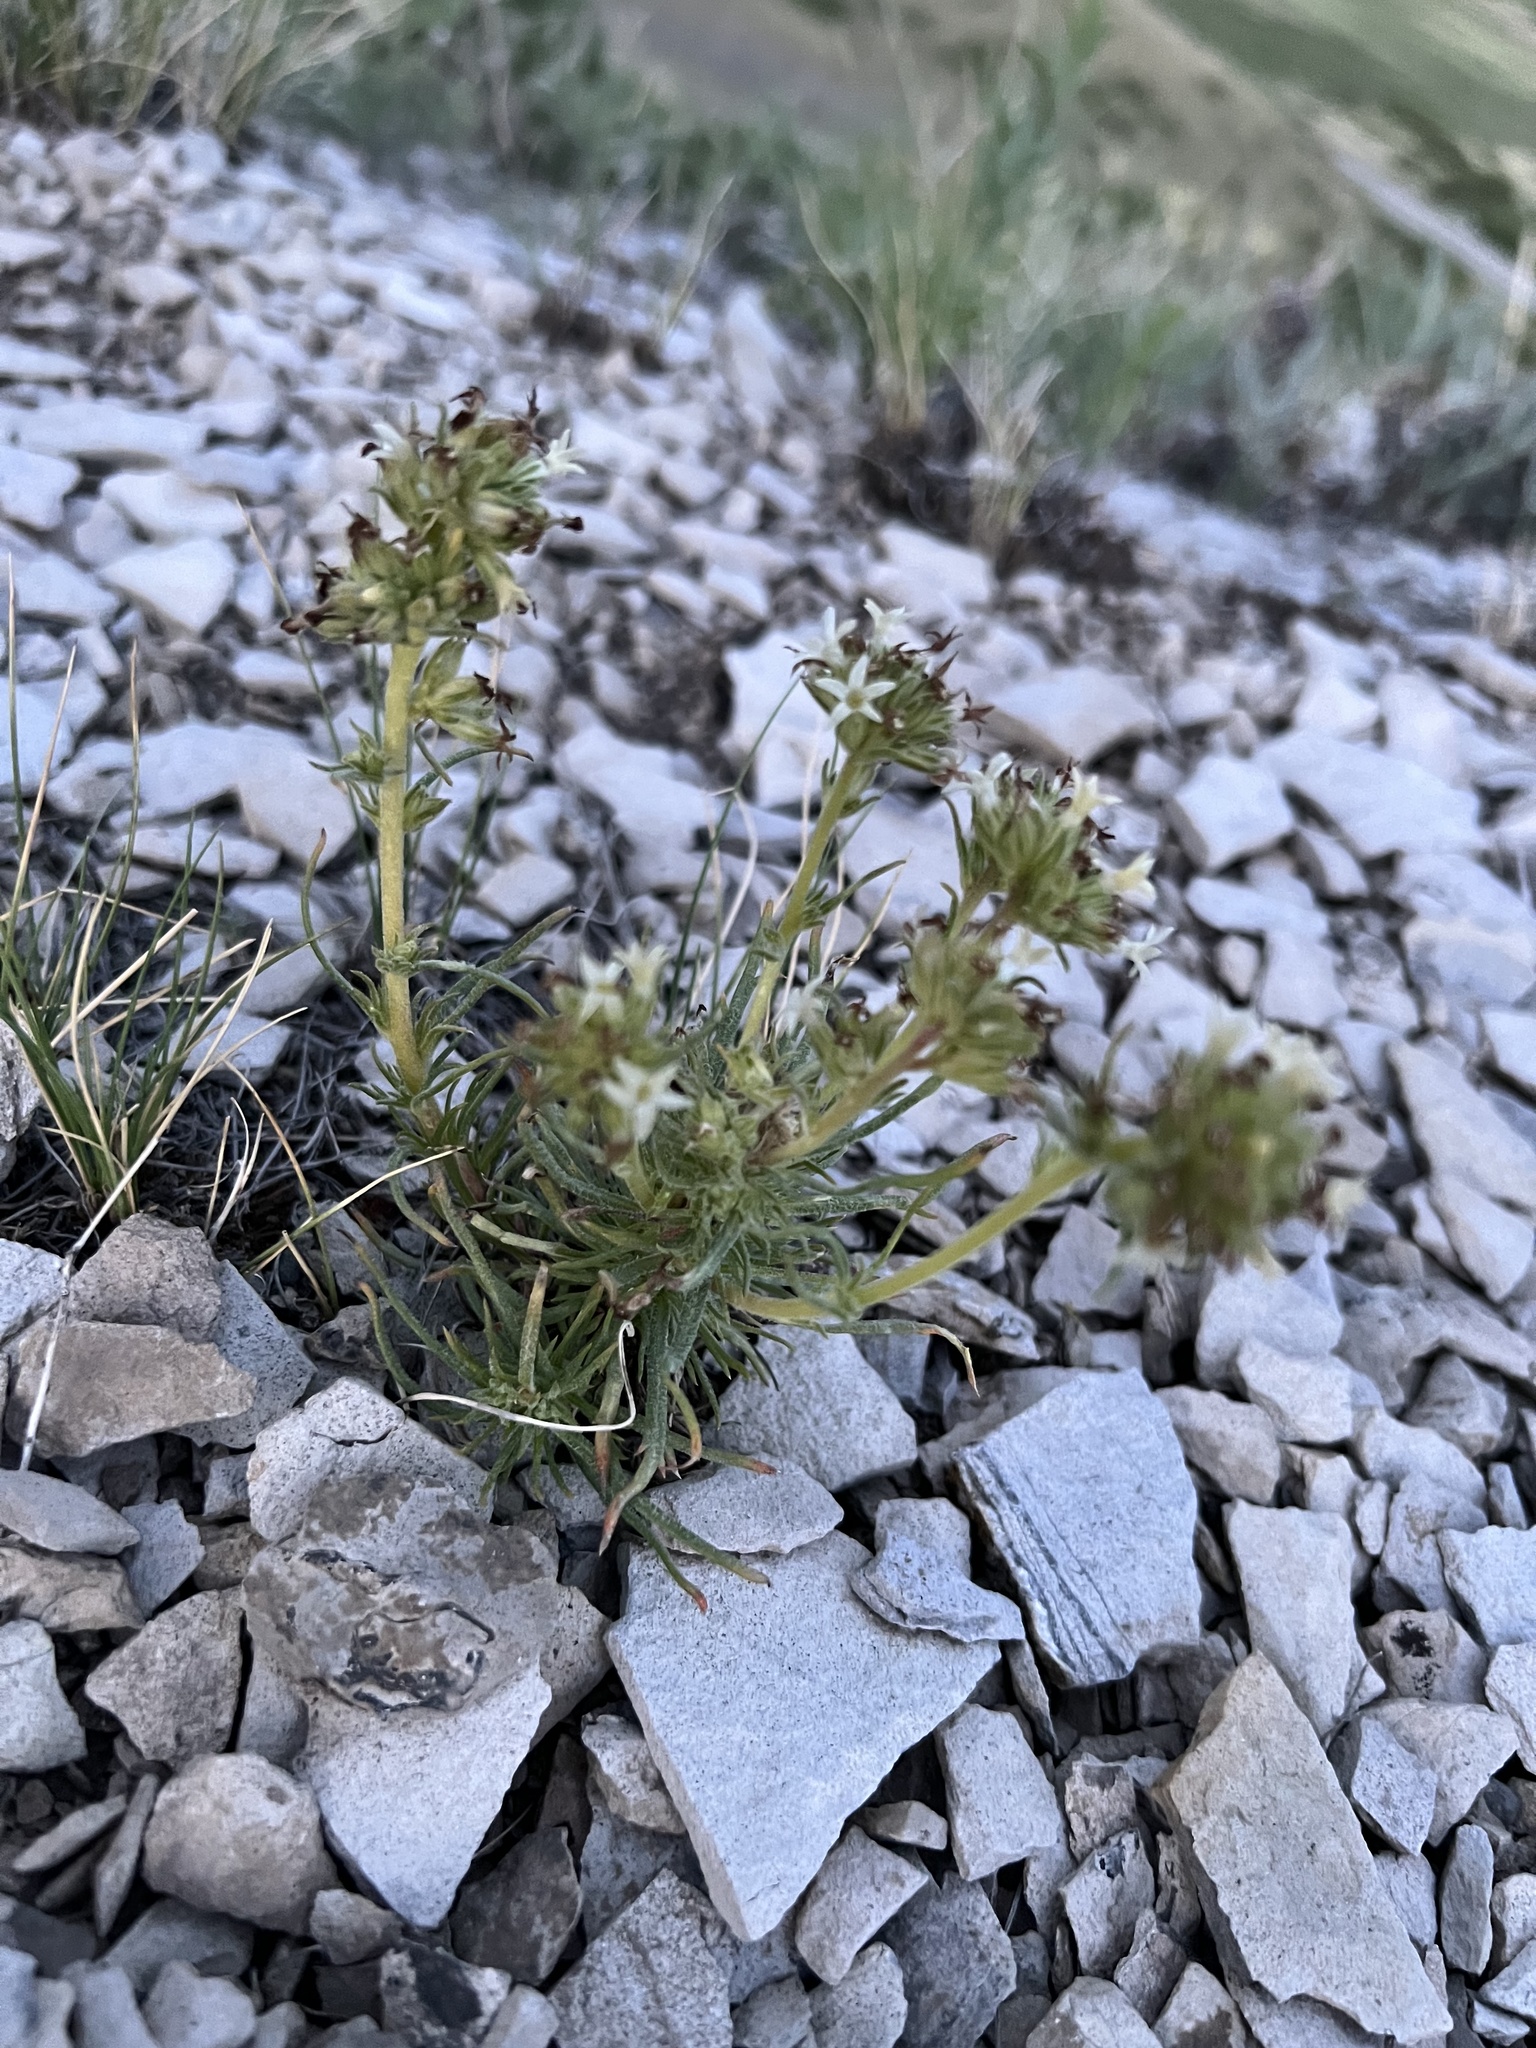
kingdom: Plantae
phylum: Tracheophyta
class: Magnoliopsida
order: Ericales
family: Polemoniaceae
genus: Ipomopsis
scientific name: Ipomopsis spicata
